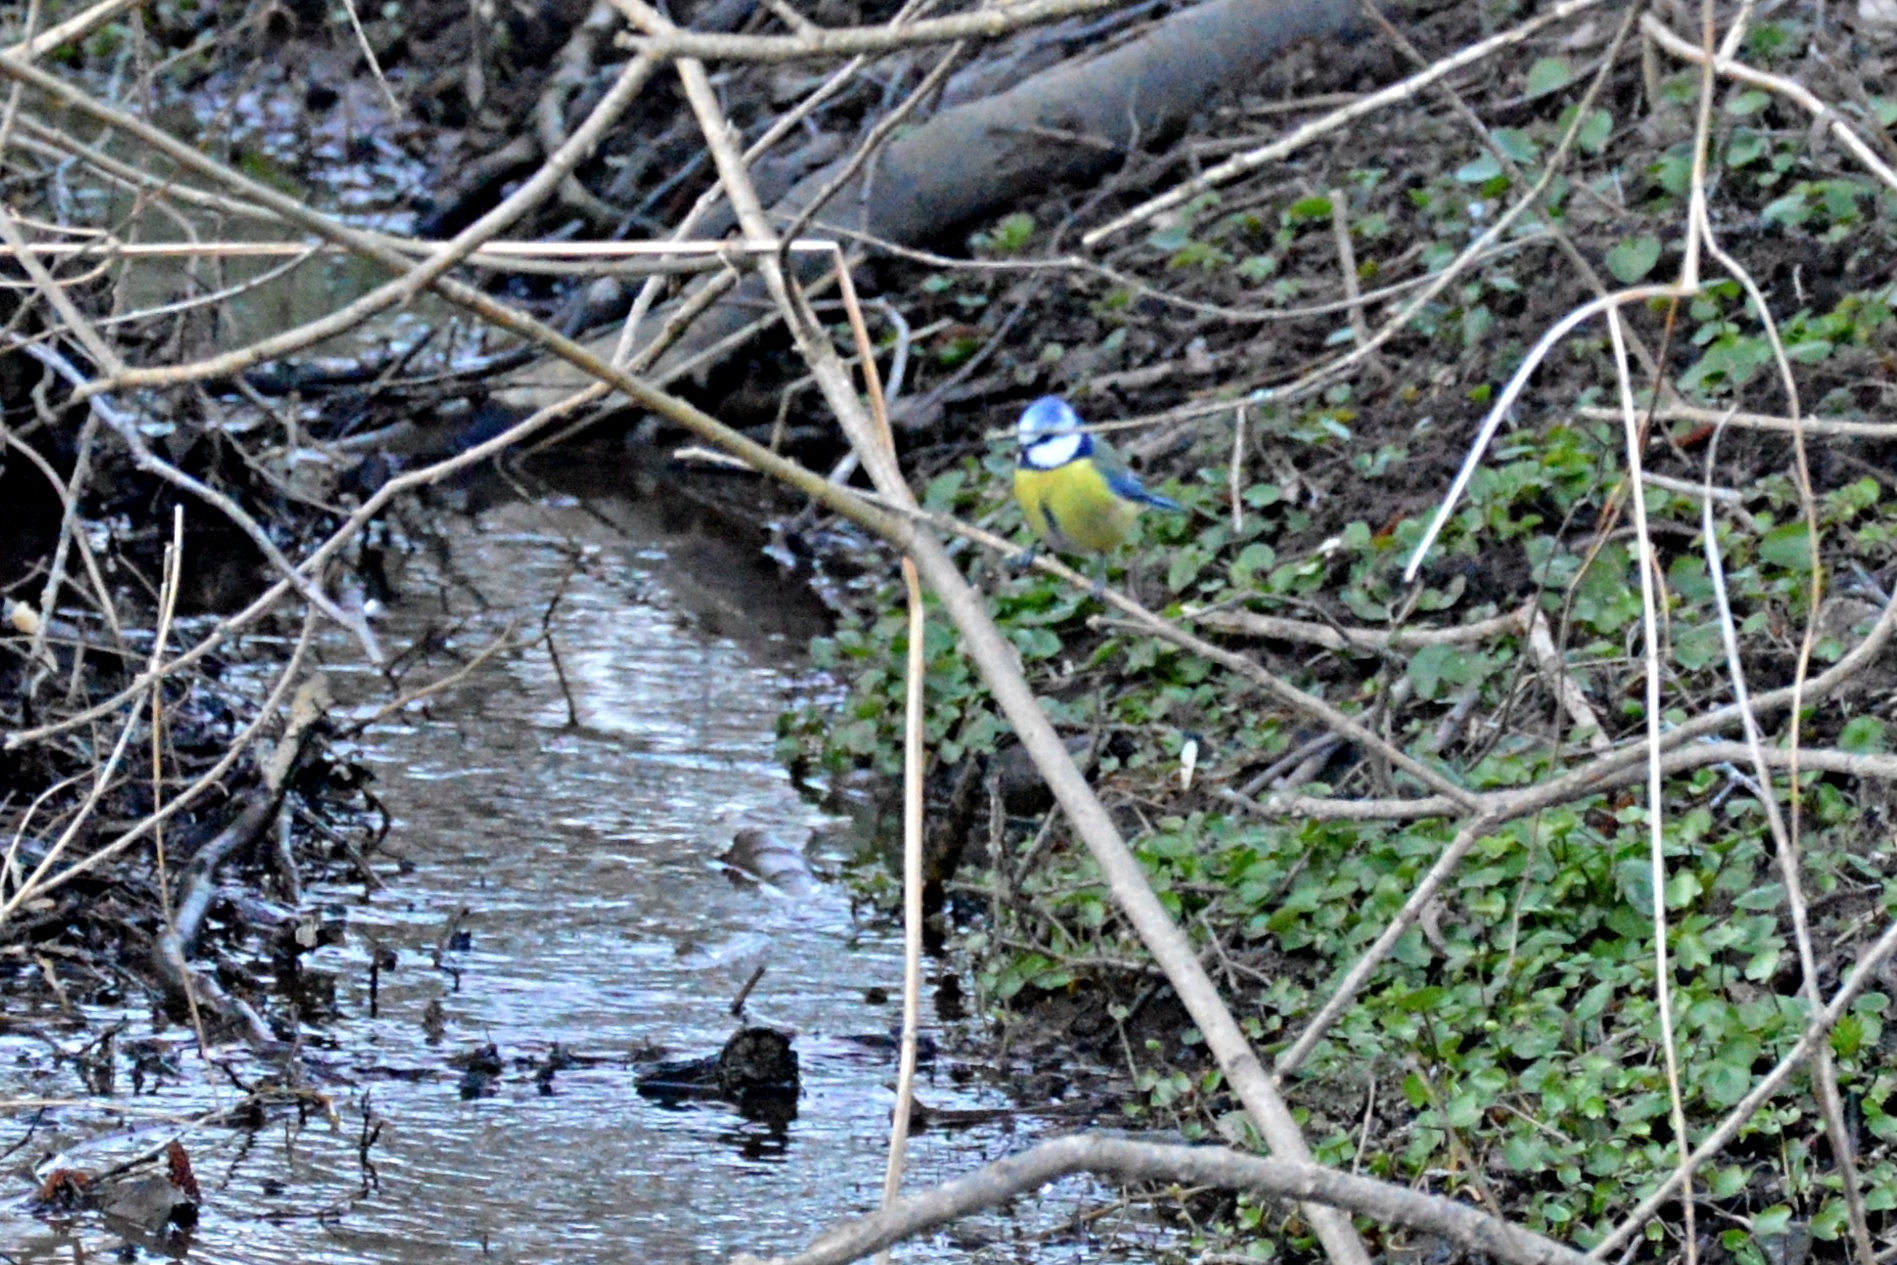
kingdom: Animalia
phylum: Chordata
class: Aves
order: Passeriformes
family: Paridae
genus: Cyanistes
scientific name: Cyanistes caeruleus
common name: Eurasian blue tit
